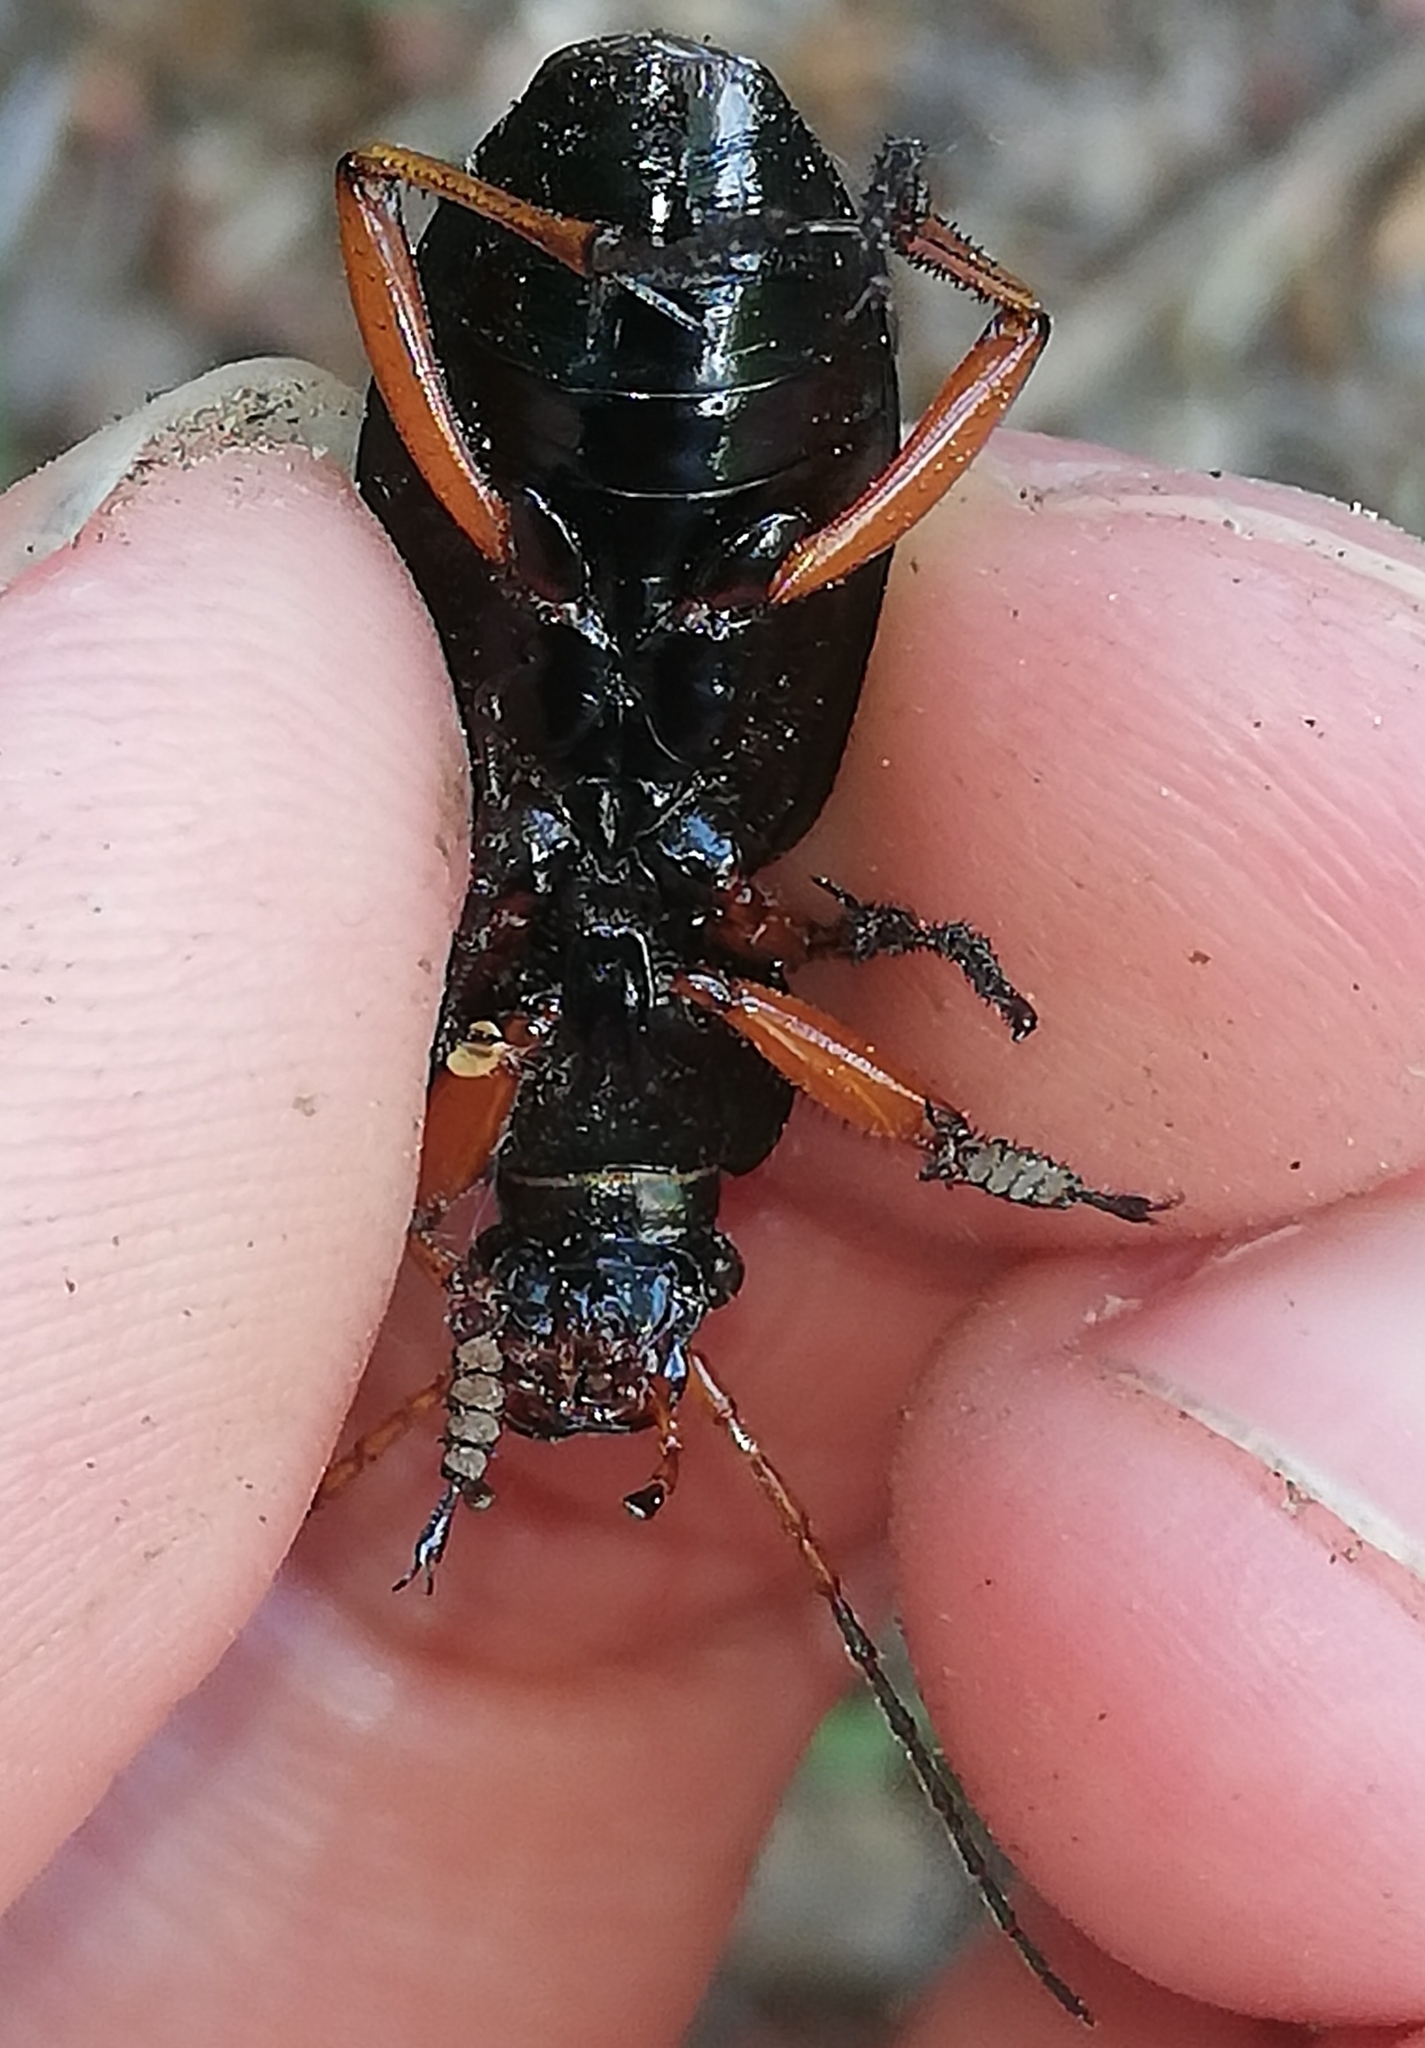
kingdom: Animalia
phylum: Arthropoda
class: Insecta
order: Coleoptera
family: Carabidae
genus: Carabus
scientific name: Carabus auratus
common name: Golden ground beetle
